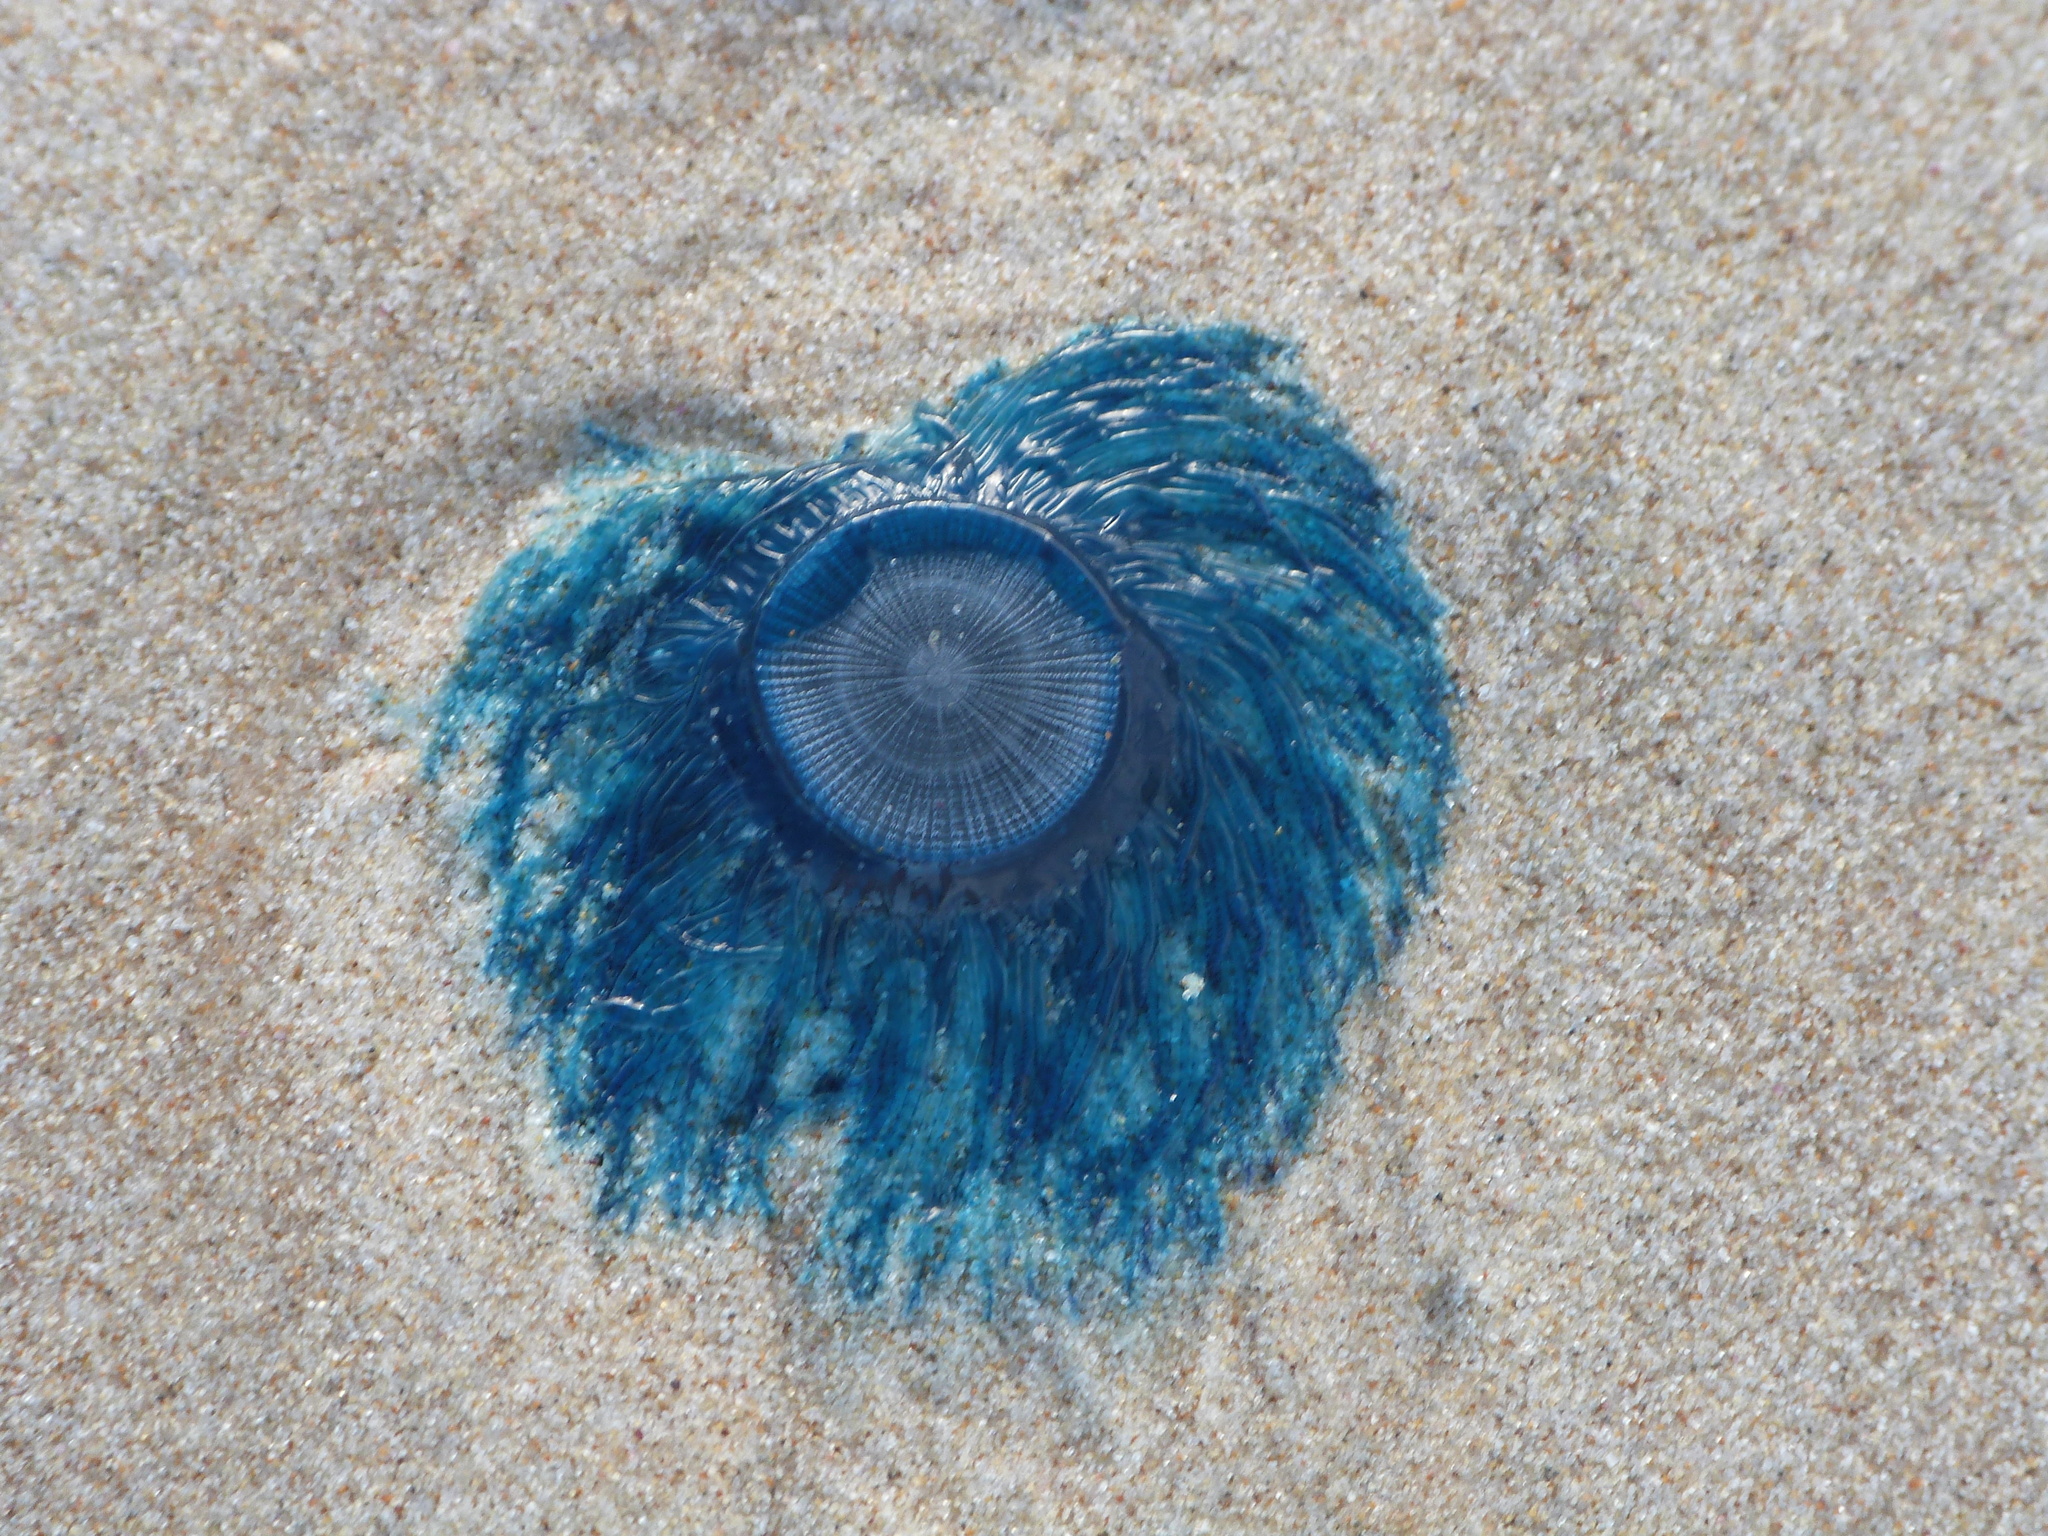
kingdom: Animalia
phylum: Cnidaria
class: Hydrozoa
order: Anthoathecata
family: Porpitidae
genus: Porpita
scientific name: Porpita porpita
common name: Blue button
